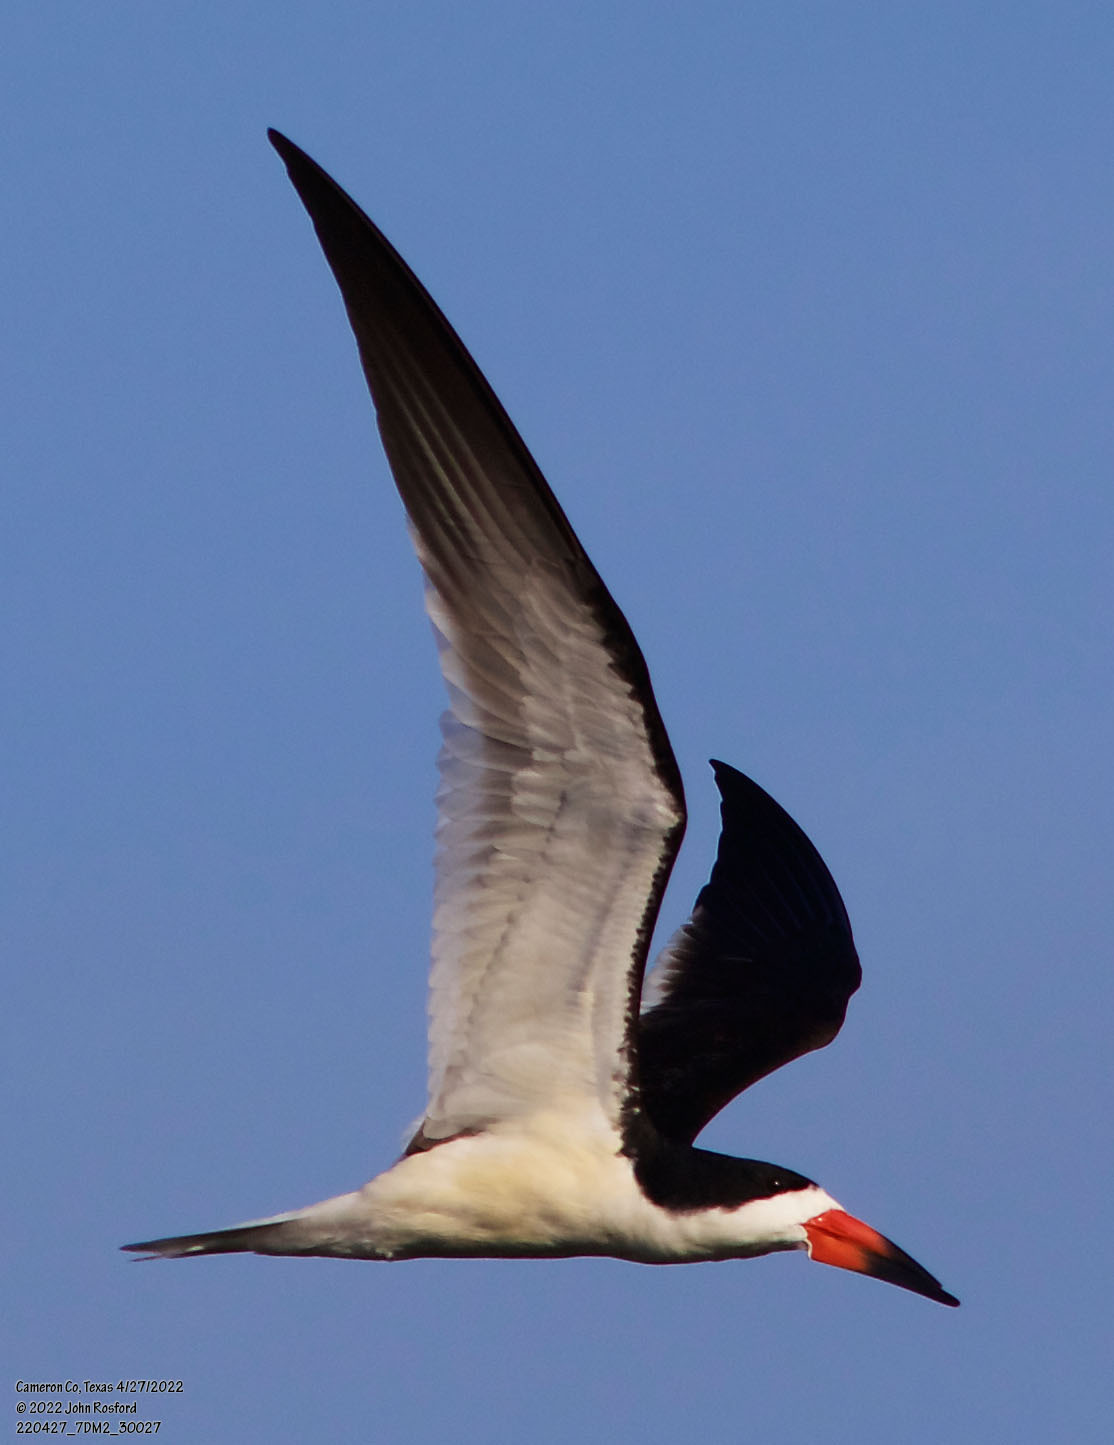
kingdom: Animalia
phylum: Chordata
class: Aves
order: Charadriiformes
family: Laridae
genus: Rynchops
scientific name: Rynchops niger
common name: Black skimmer
